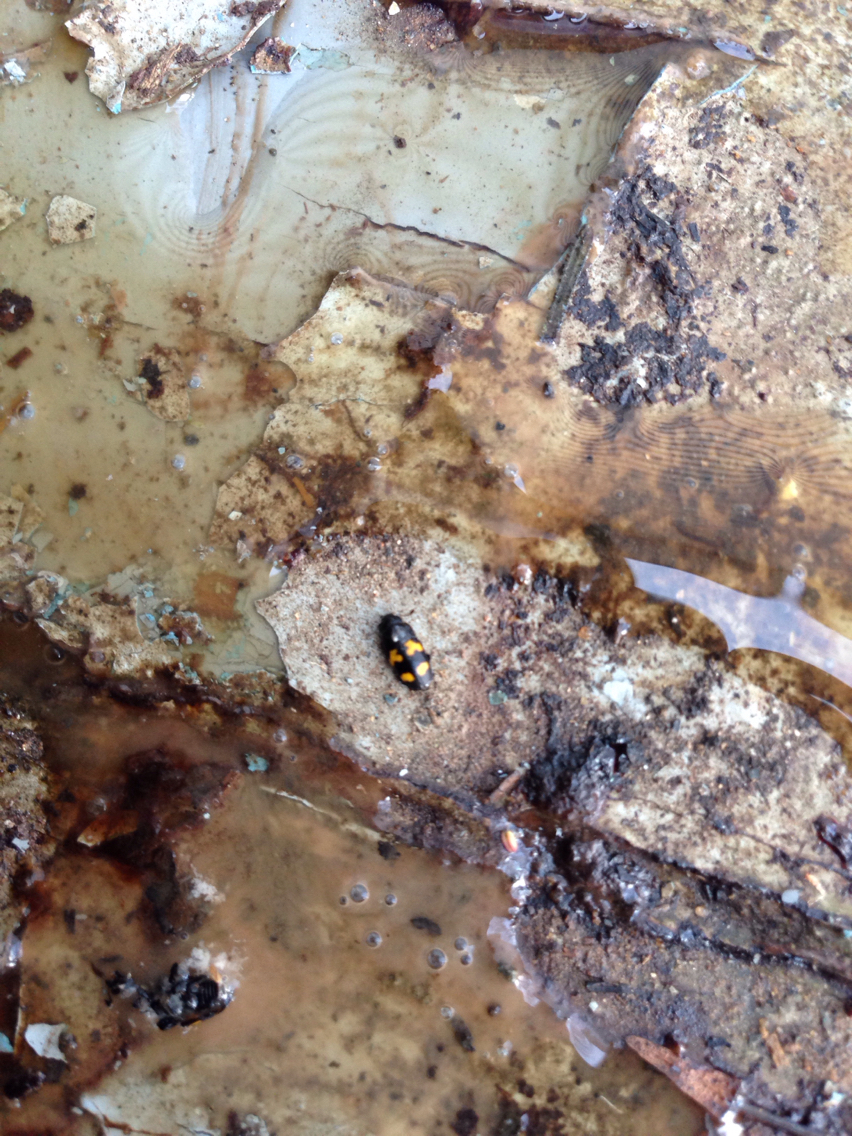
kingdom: Animalia
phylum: Arthropoda
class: Insecta
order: Coleoptera
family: Nitidulidae
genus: Glischrochilus
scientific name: Glischrochilus fasciatus
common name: Picnic beetle
